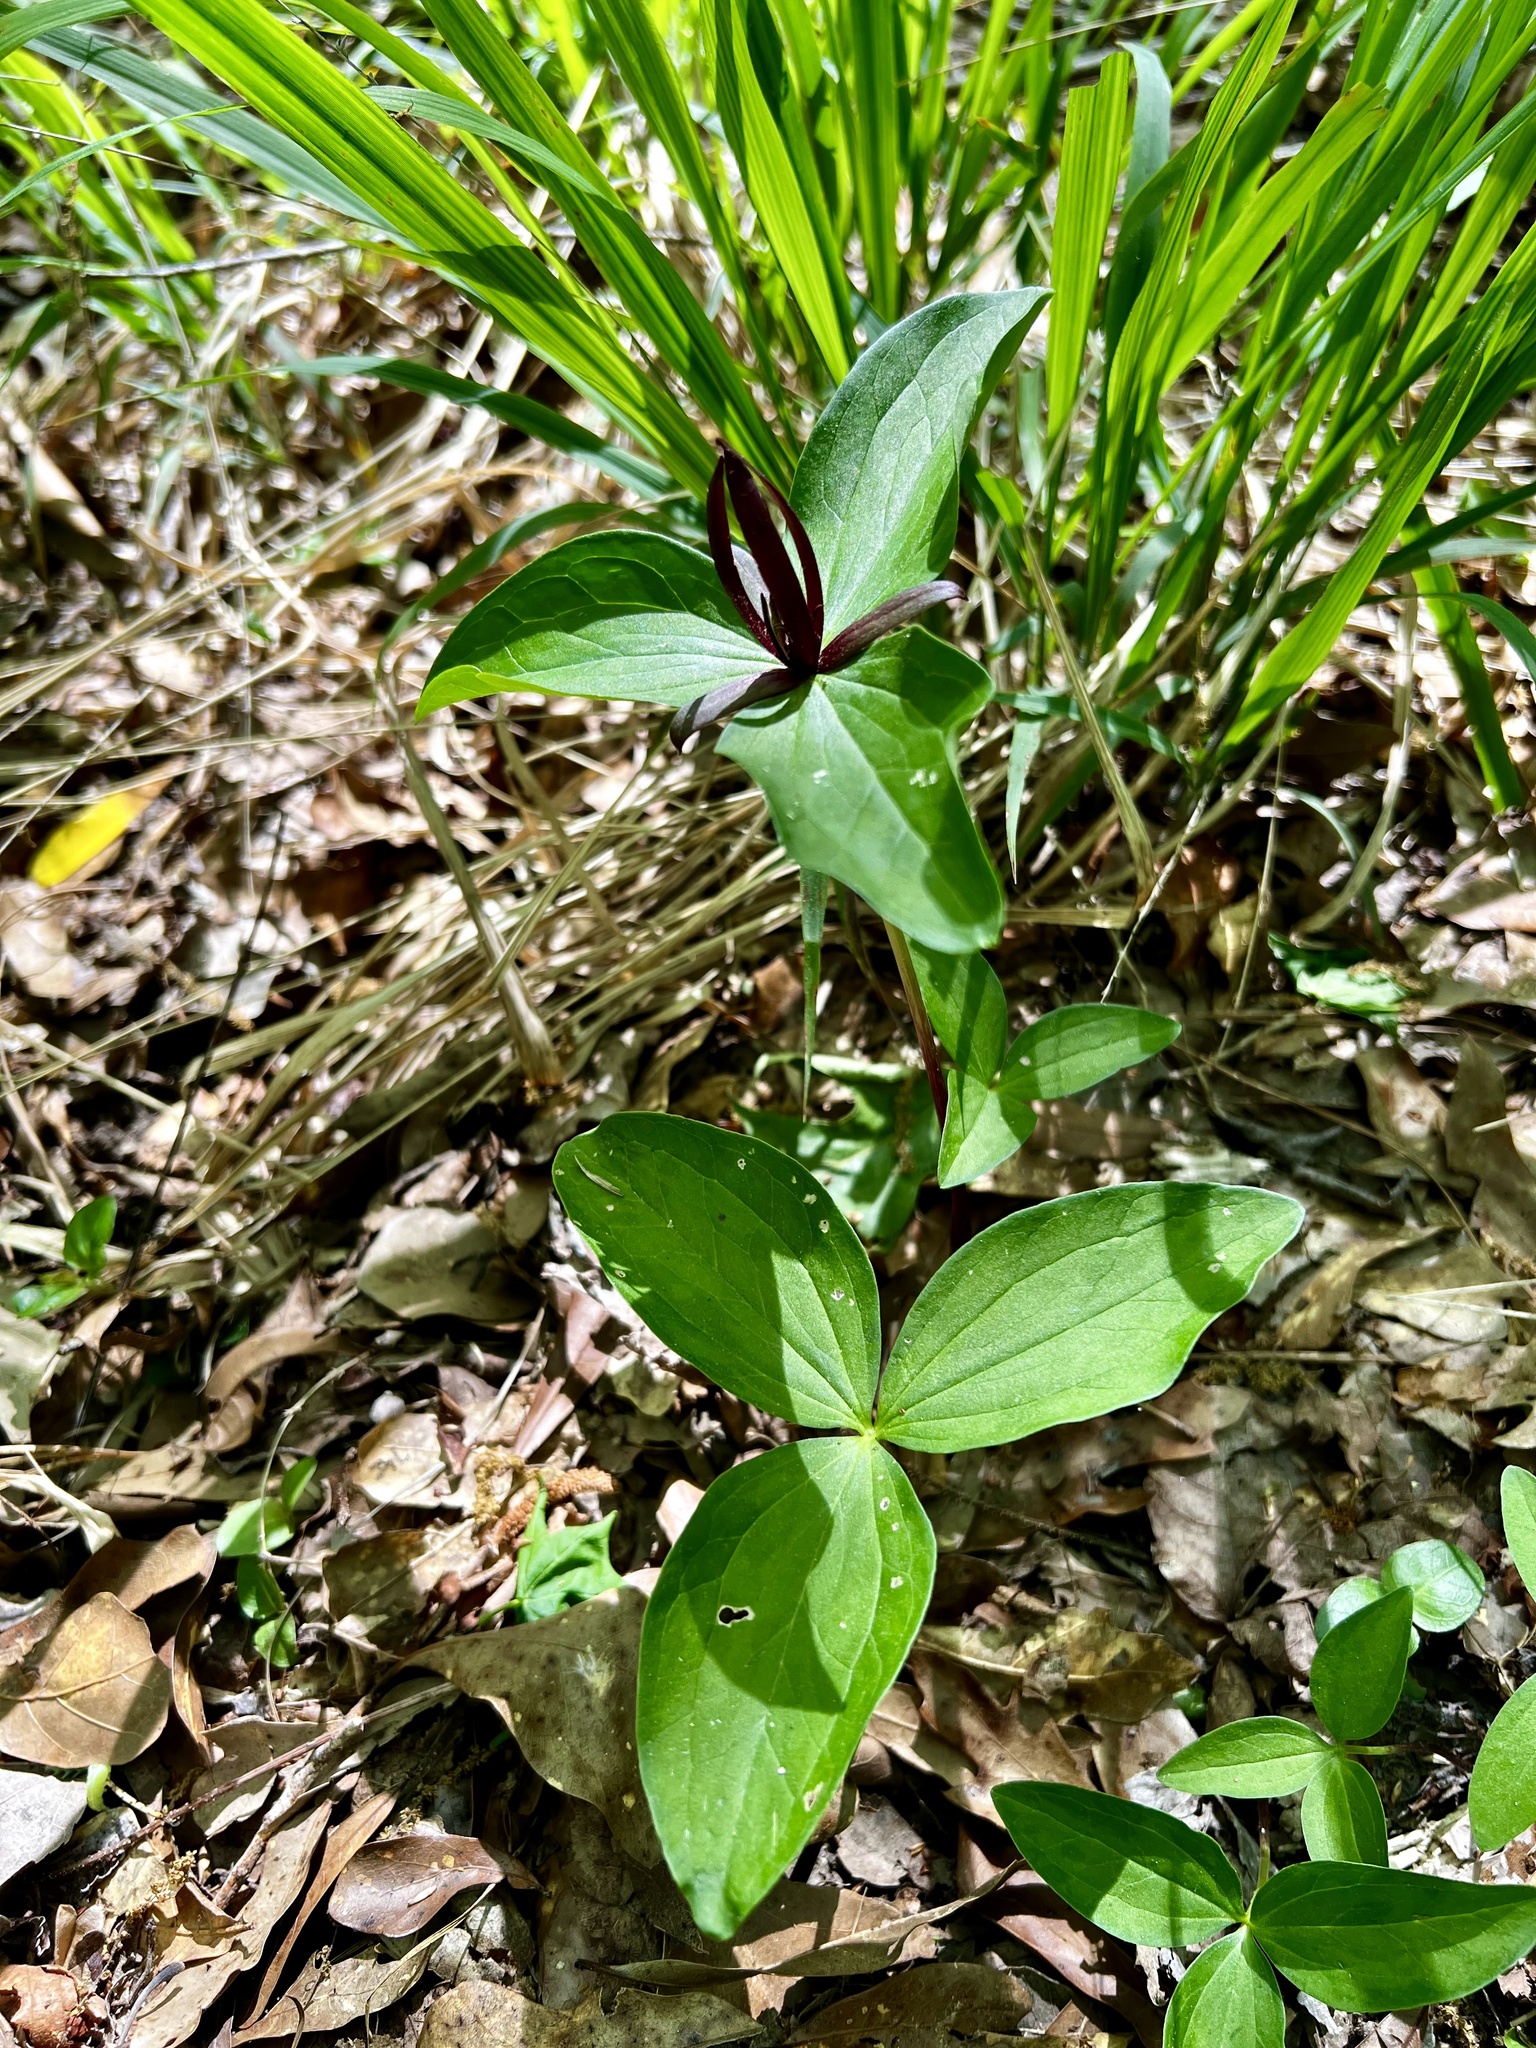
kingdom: Plantae
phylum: Tracheophyta
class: Liliopsida
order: Liliales
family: Melanthiaceae
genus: Trillium
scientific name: Trillium ludovicianum
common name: Louisiana toadshade
